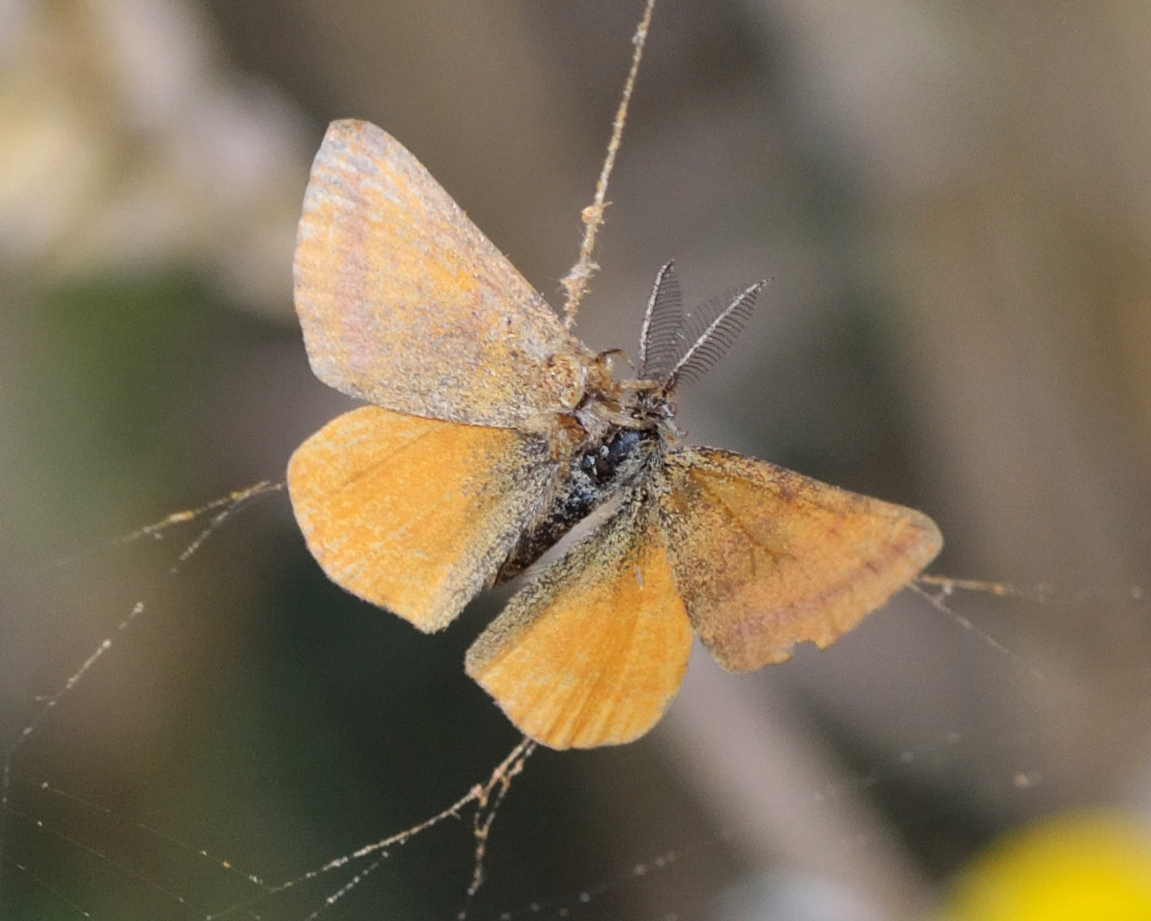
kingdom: Animalia
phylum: Arthropoda
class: Insecta
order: Lepidoptera
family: Geometridae
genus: Lythria
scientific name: Lythria purpuraria
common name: Purple-barred yellow
